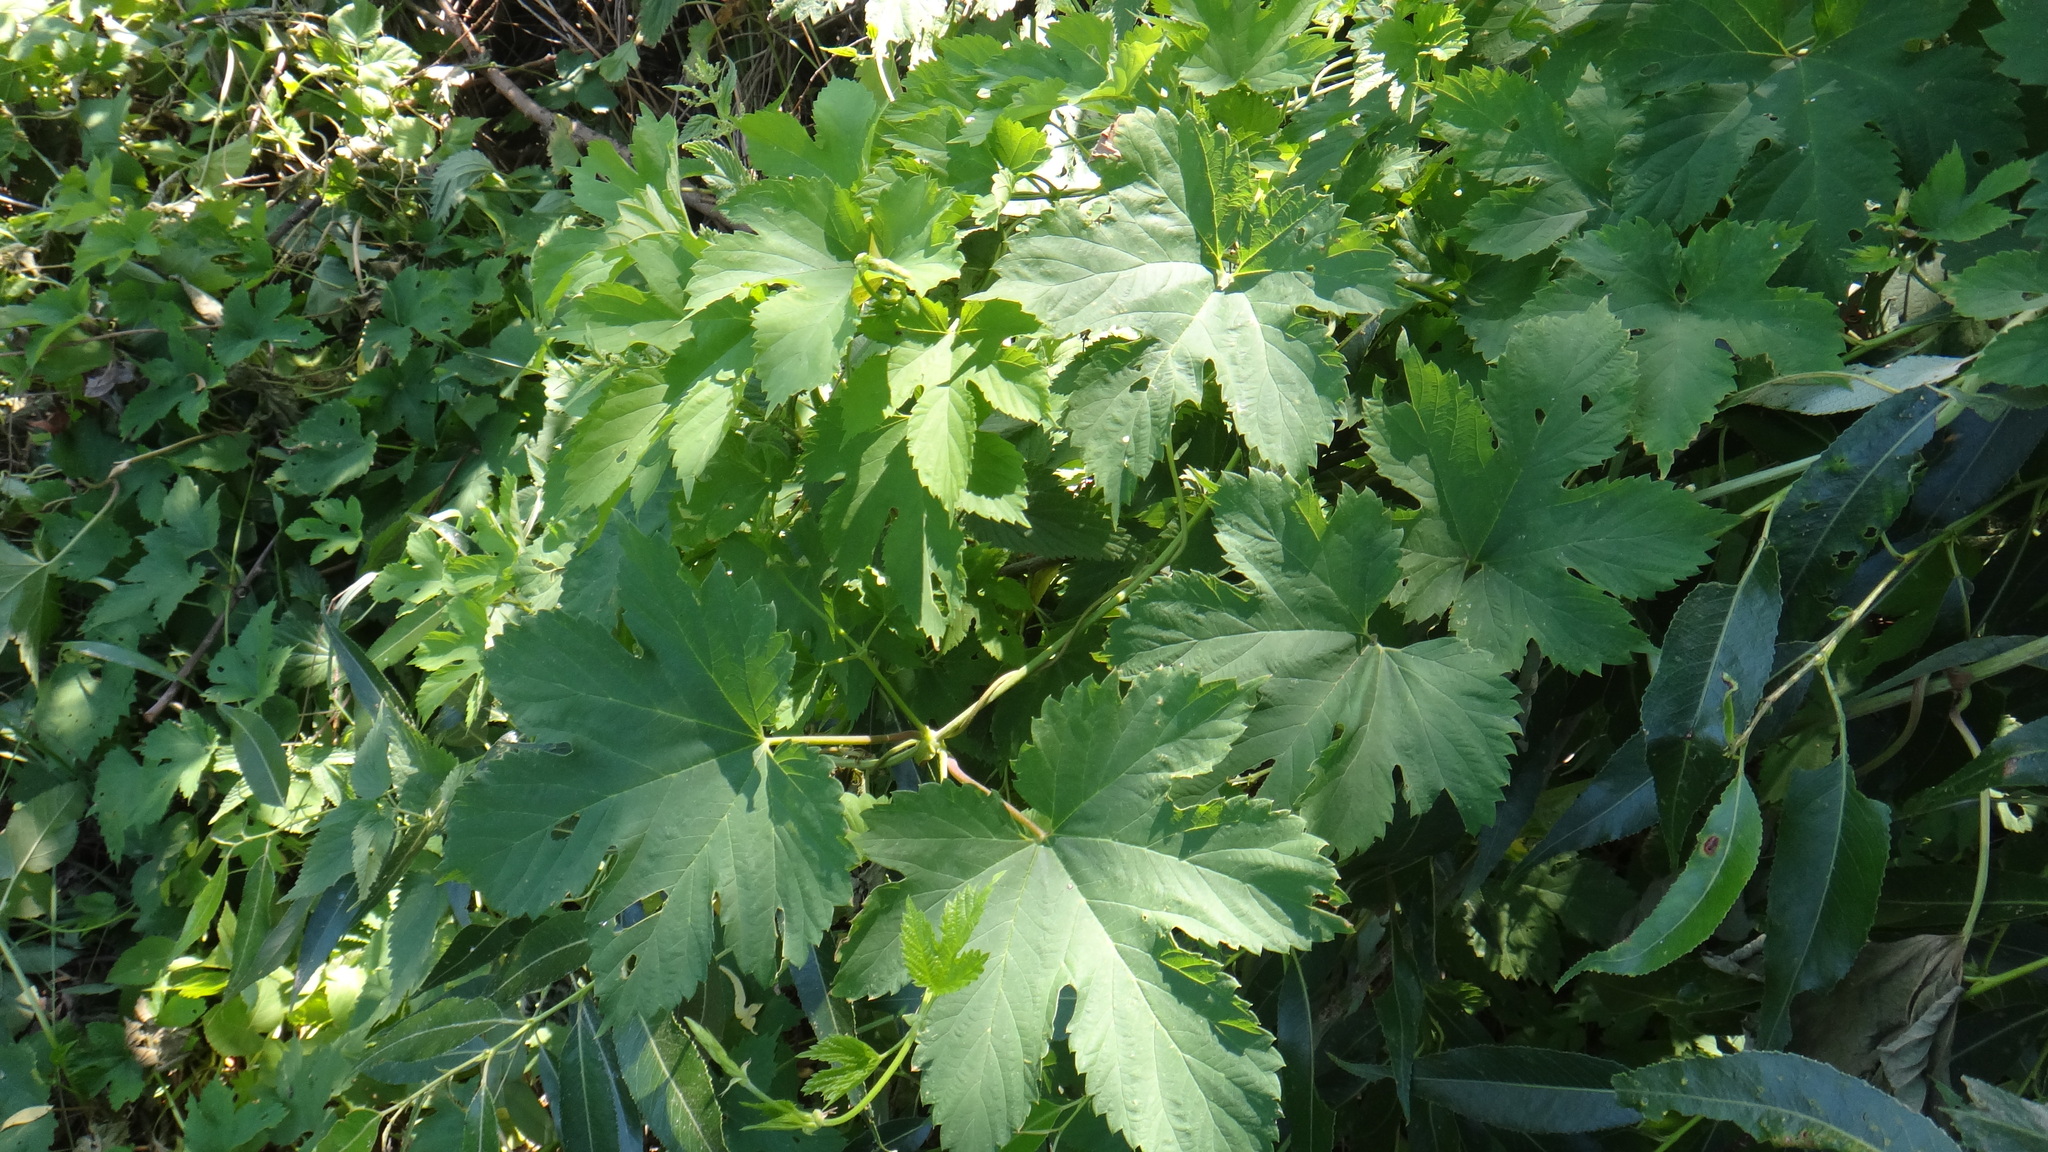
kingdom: Plantae
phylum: Tracheophyta
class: Magnoliopsida
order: Rosales
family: Cannabaceae
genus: Humulus
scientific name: Humulus lupulus
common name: Hop
